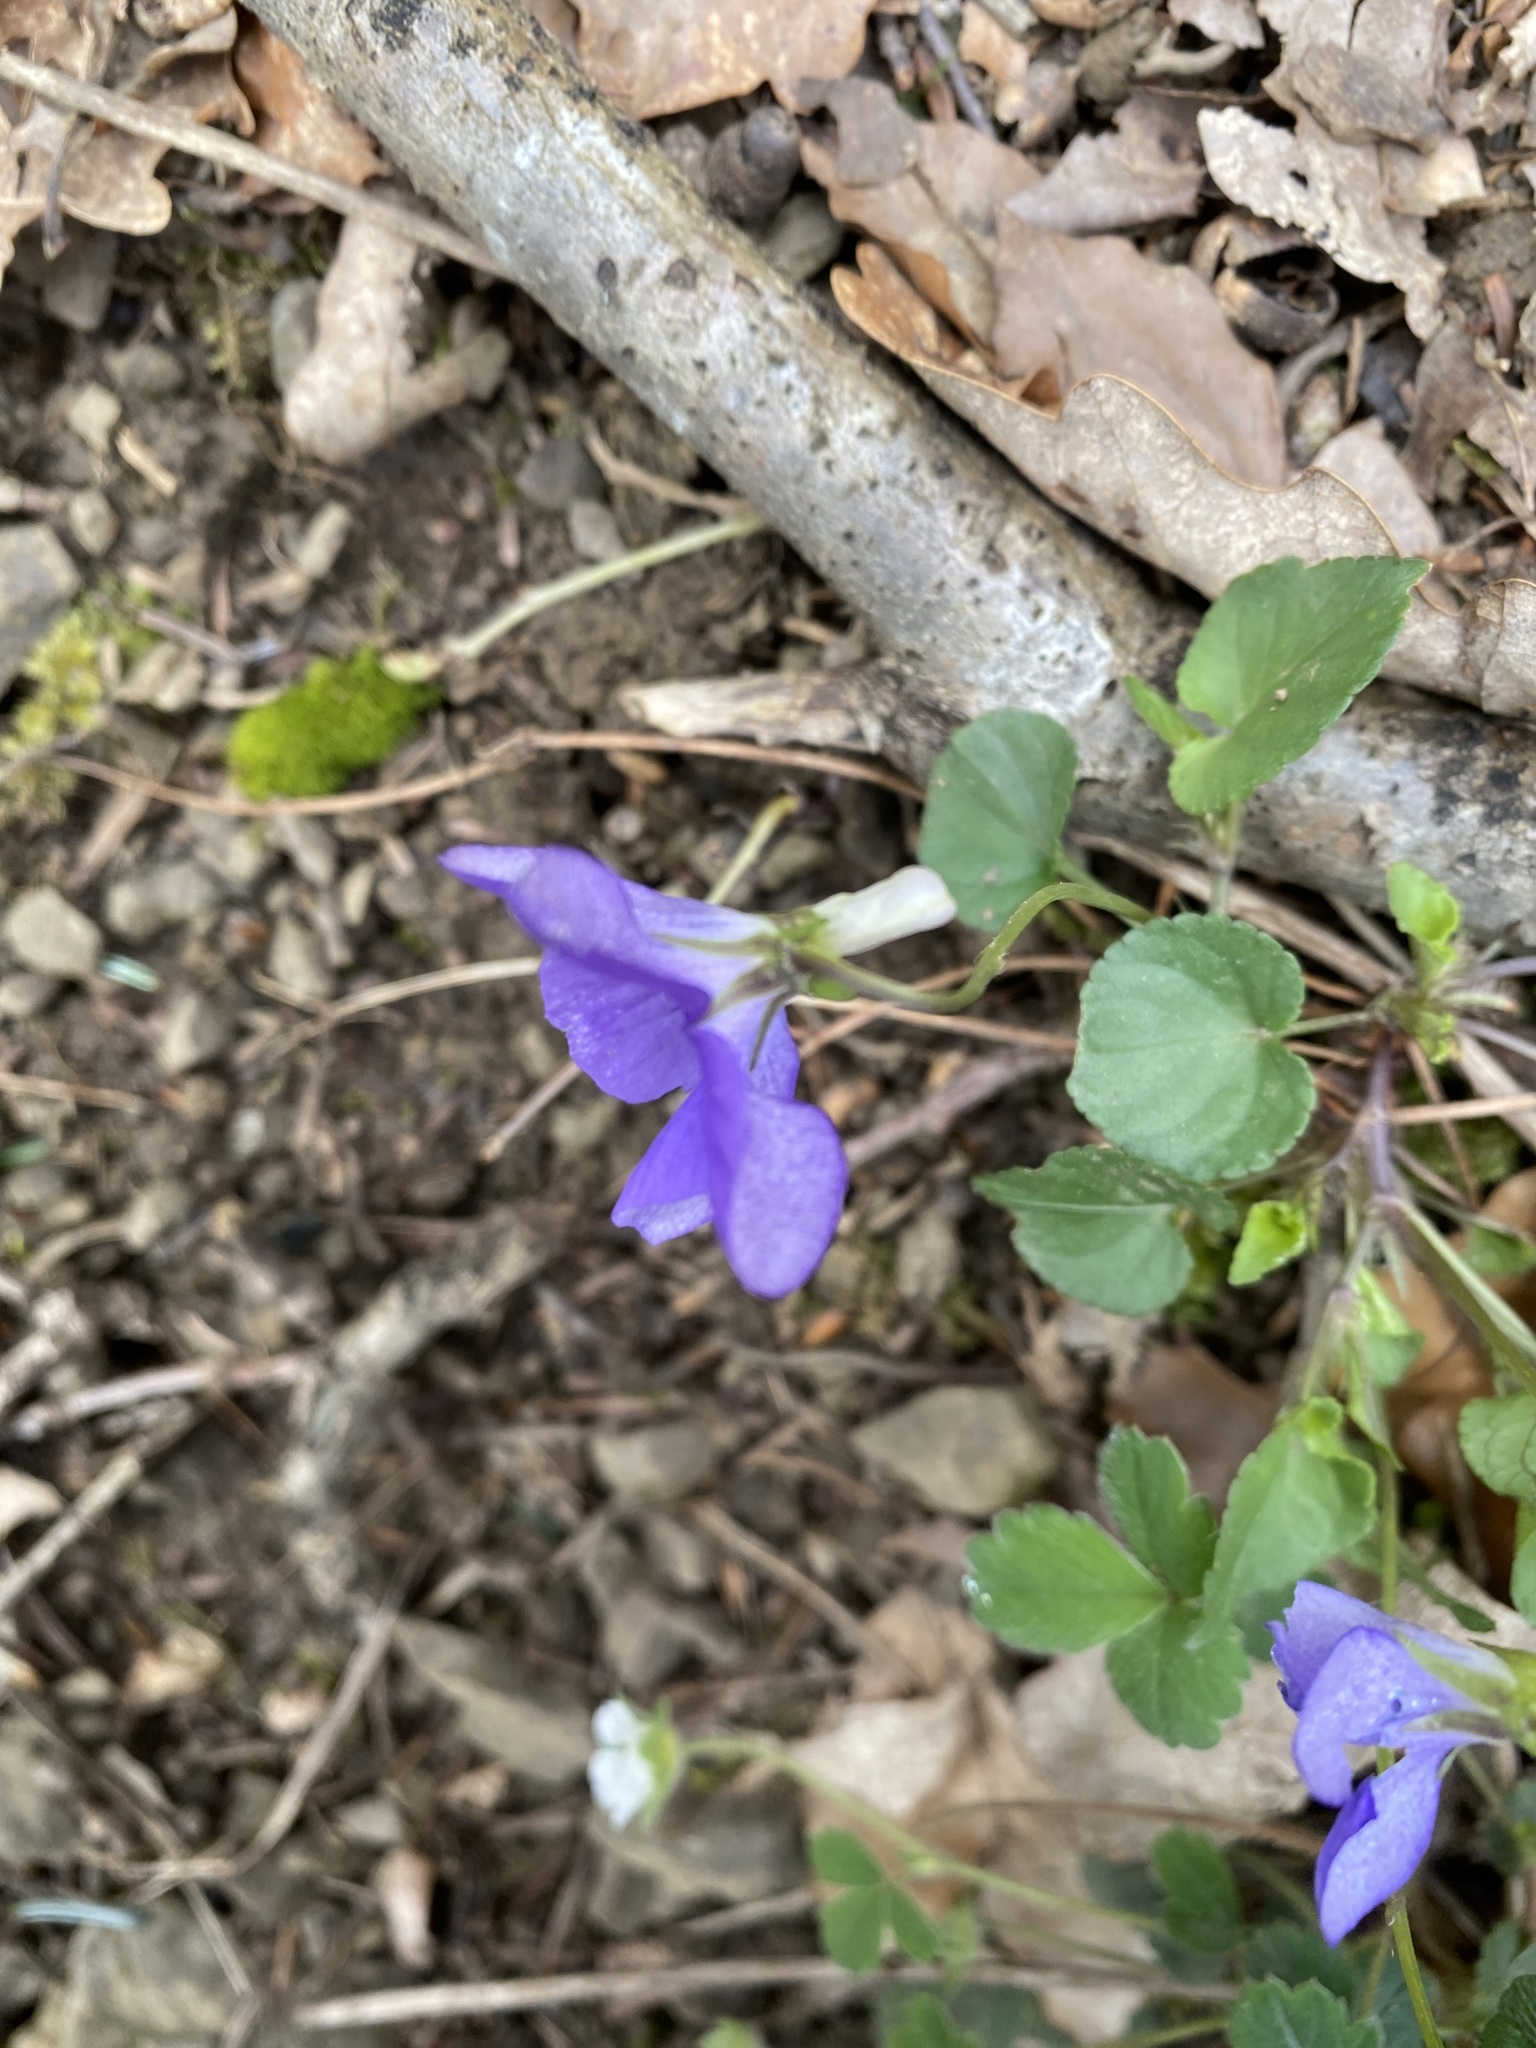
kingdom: Plantae
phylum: Tracheophyta
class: Magnoliopsida
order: Malpighiales
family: Violaceae
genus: Viola
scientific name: Viola riviniana
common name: Common dog-violet
